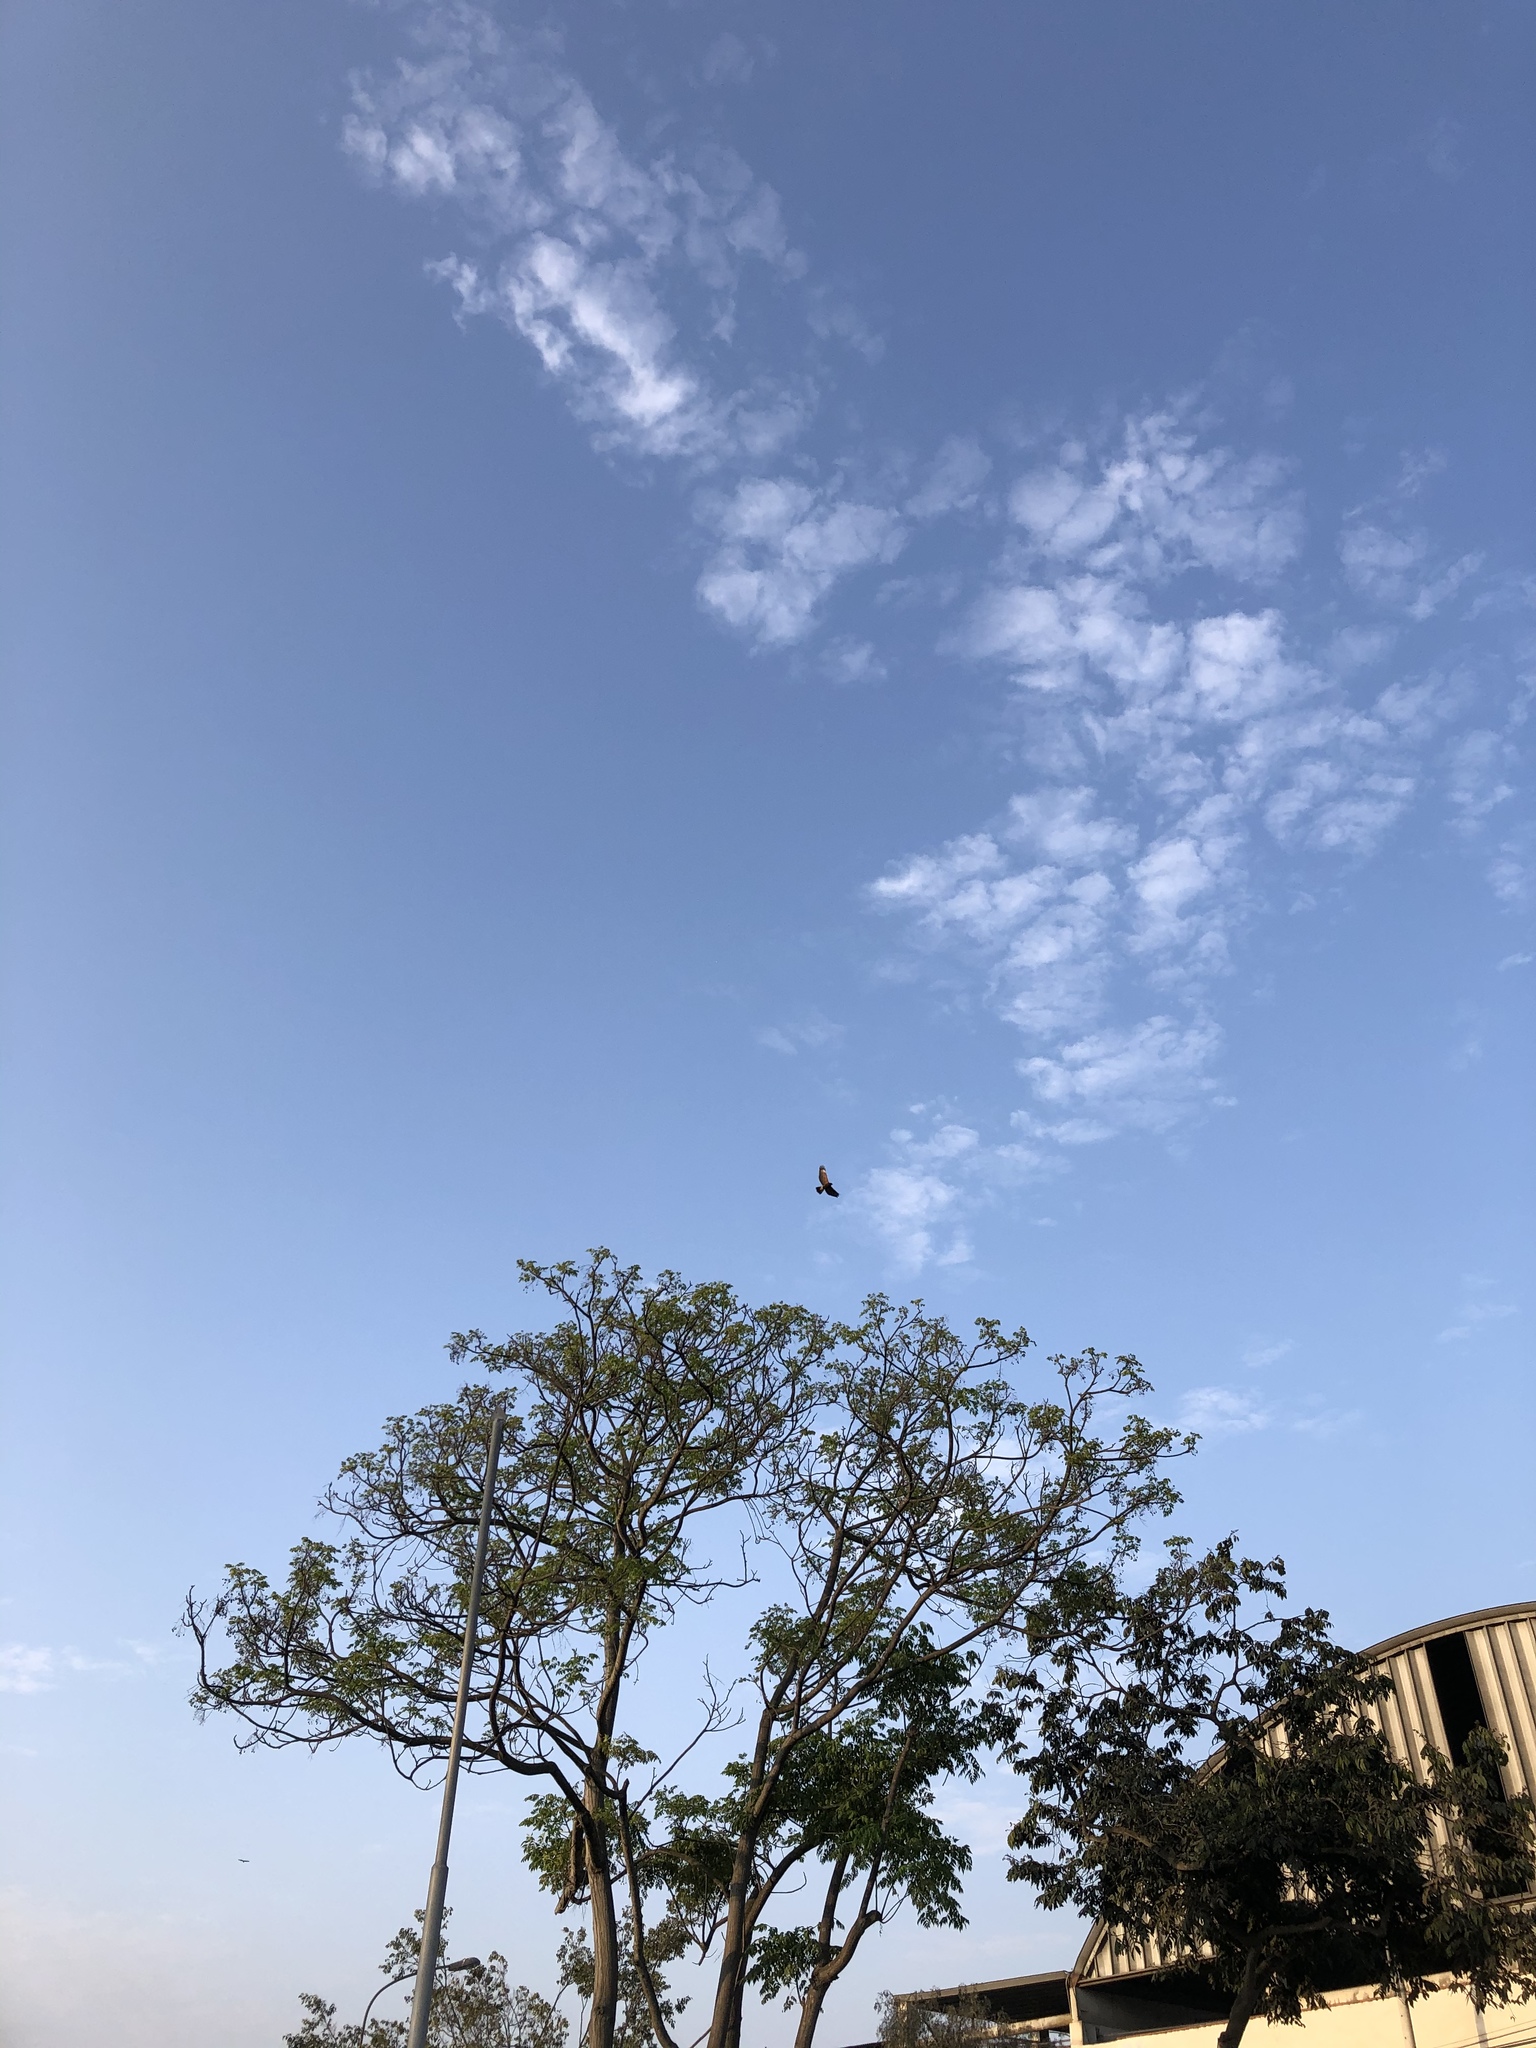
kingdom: Animalia
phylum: Chordata
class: Aves
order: Accipitriformes
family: Accipitridae
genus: Parabuteo
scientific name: Parabuteo unicinctus
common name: Harris's hawk
